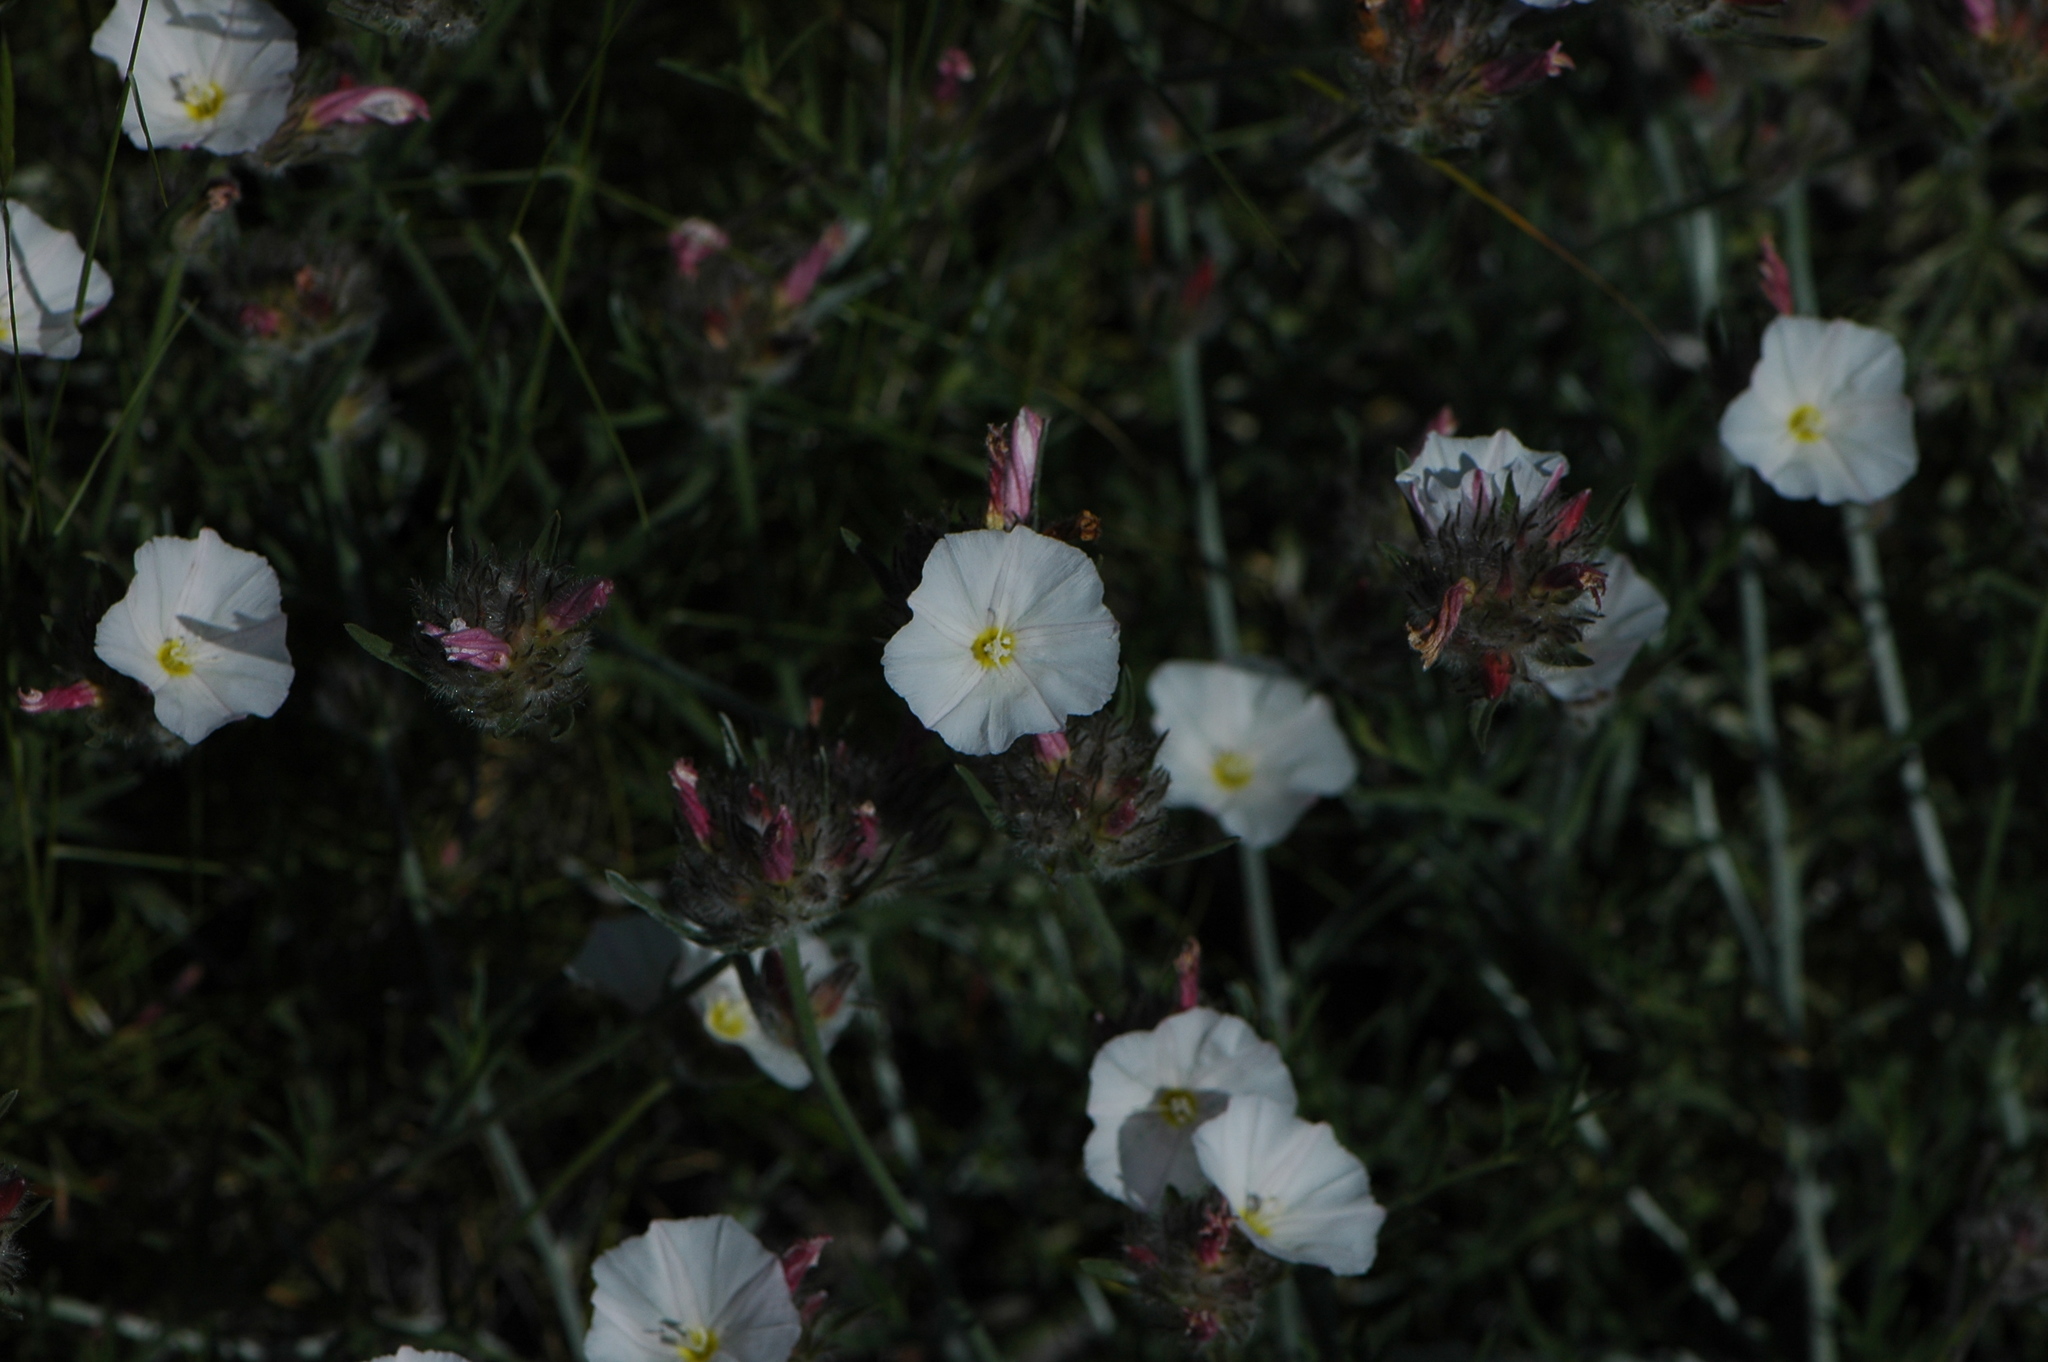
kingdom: Plantae
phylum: Tracheophyta
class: Magnoliopsida
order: Solanales
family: Convolvulaceae
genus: Convolvulus
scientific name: Convolvulus lanuginosus
